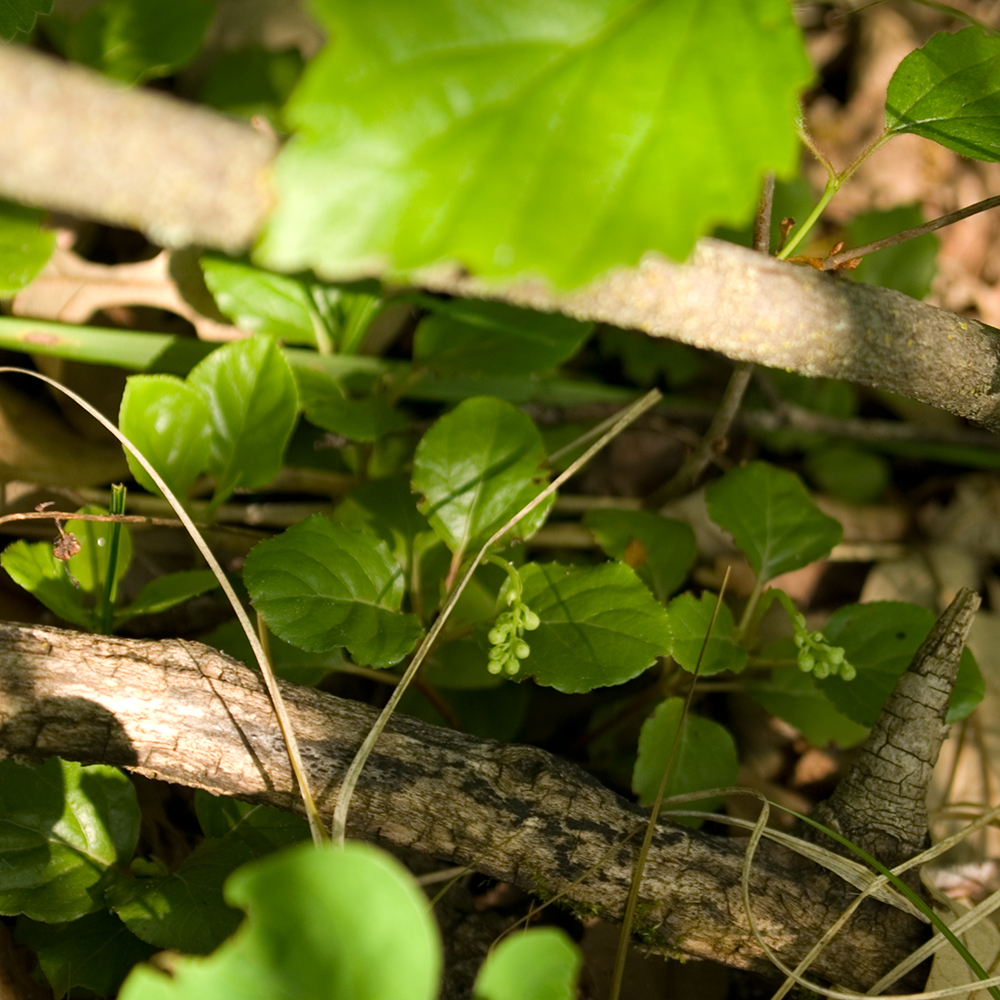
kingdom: Plantae
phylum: Tracheophyta
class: Magnoliopsida
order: Ericales
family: Ericaceae
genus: Pyrola
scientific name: Pyrola elliptica
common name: Shinleaf
